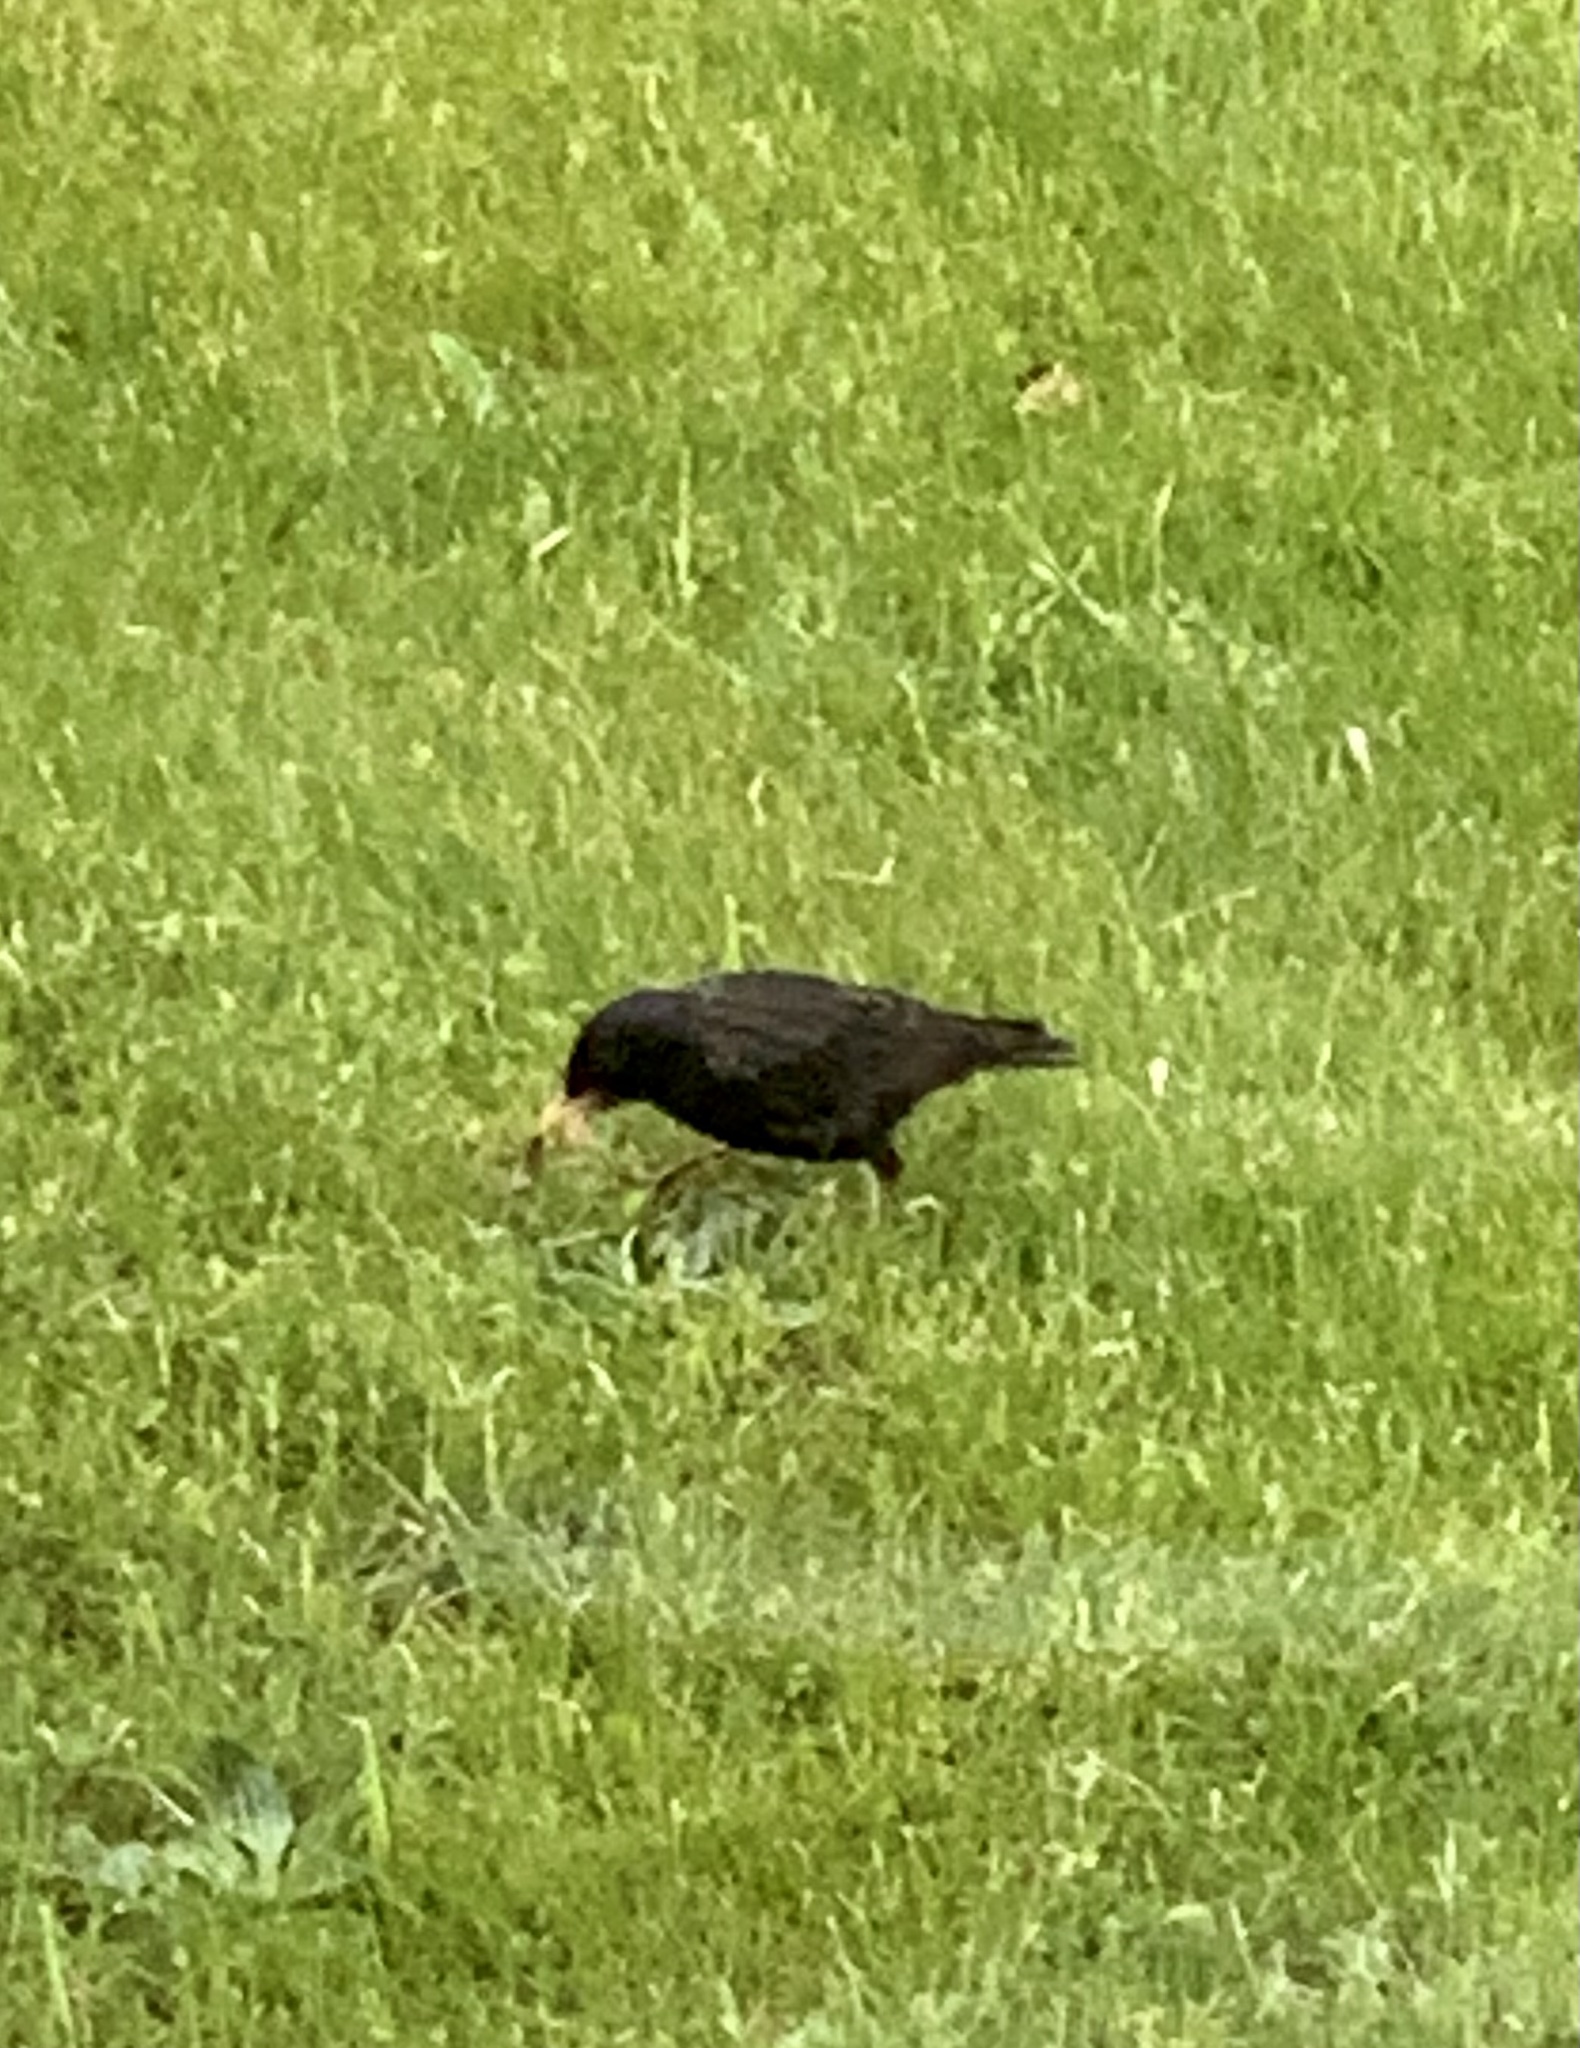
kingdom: Animalia
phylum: Chordata
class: Aves
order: Passeriformes
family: Sturnidae
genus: Sturnus
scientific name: Sturnus vulgaris
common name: Common starling
